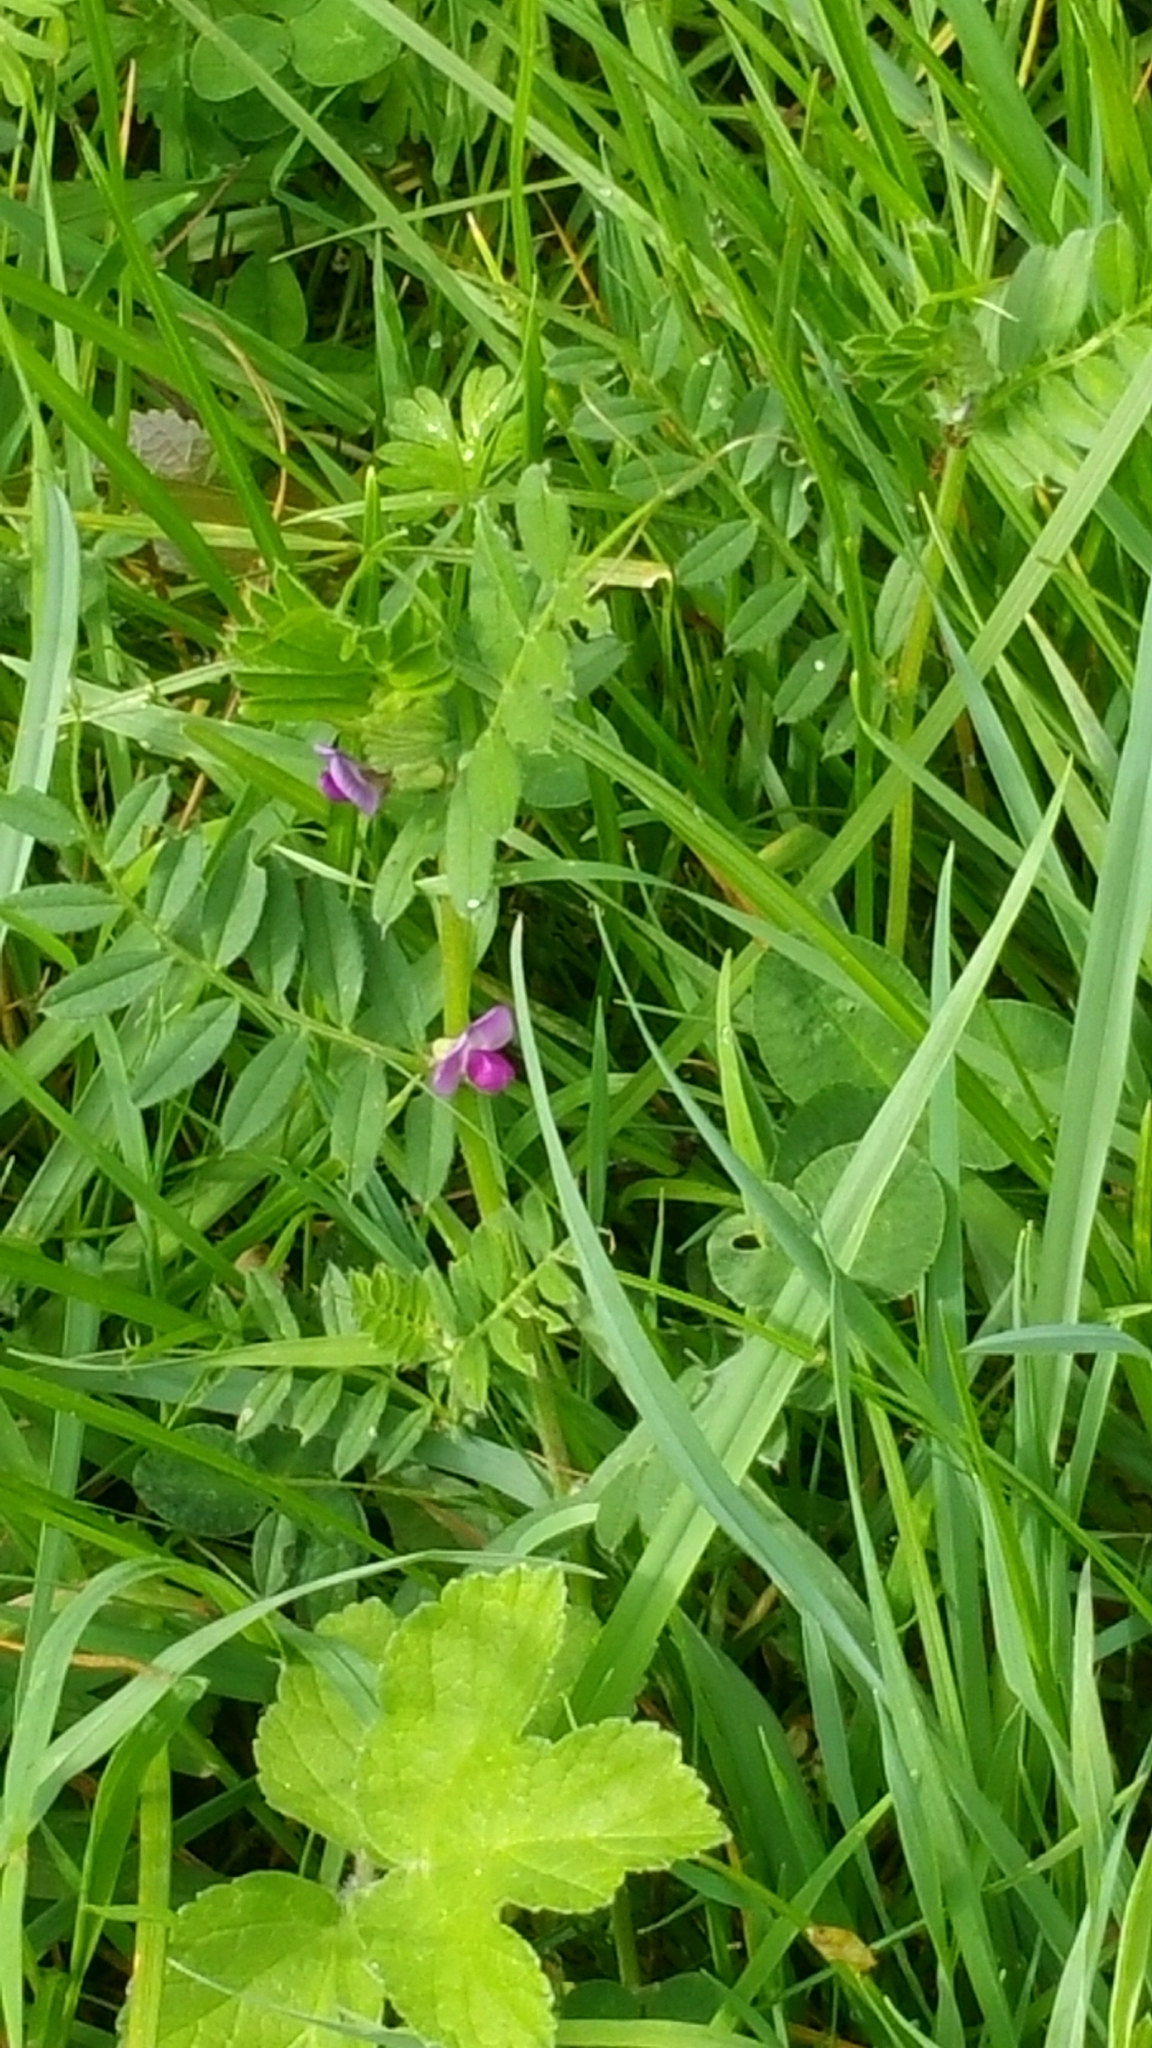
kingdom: Plantae
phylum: Tracheophyta
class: Magnoliopsida
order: Fabales
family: Fabaceae
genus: Vicia
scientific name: Vicia sativa
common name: Garden vetch
